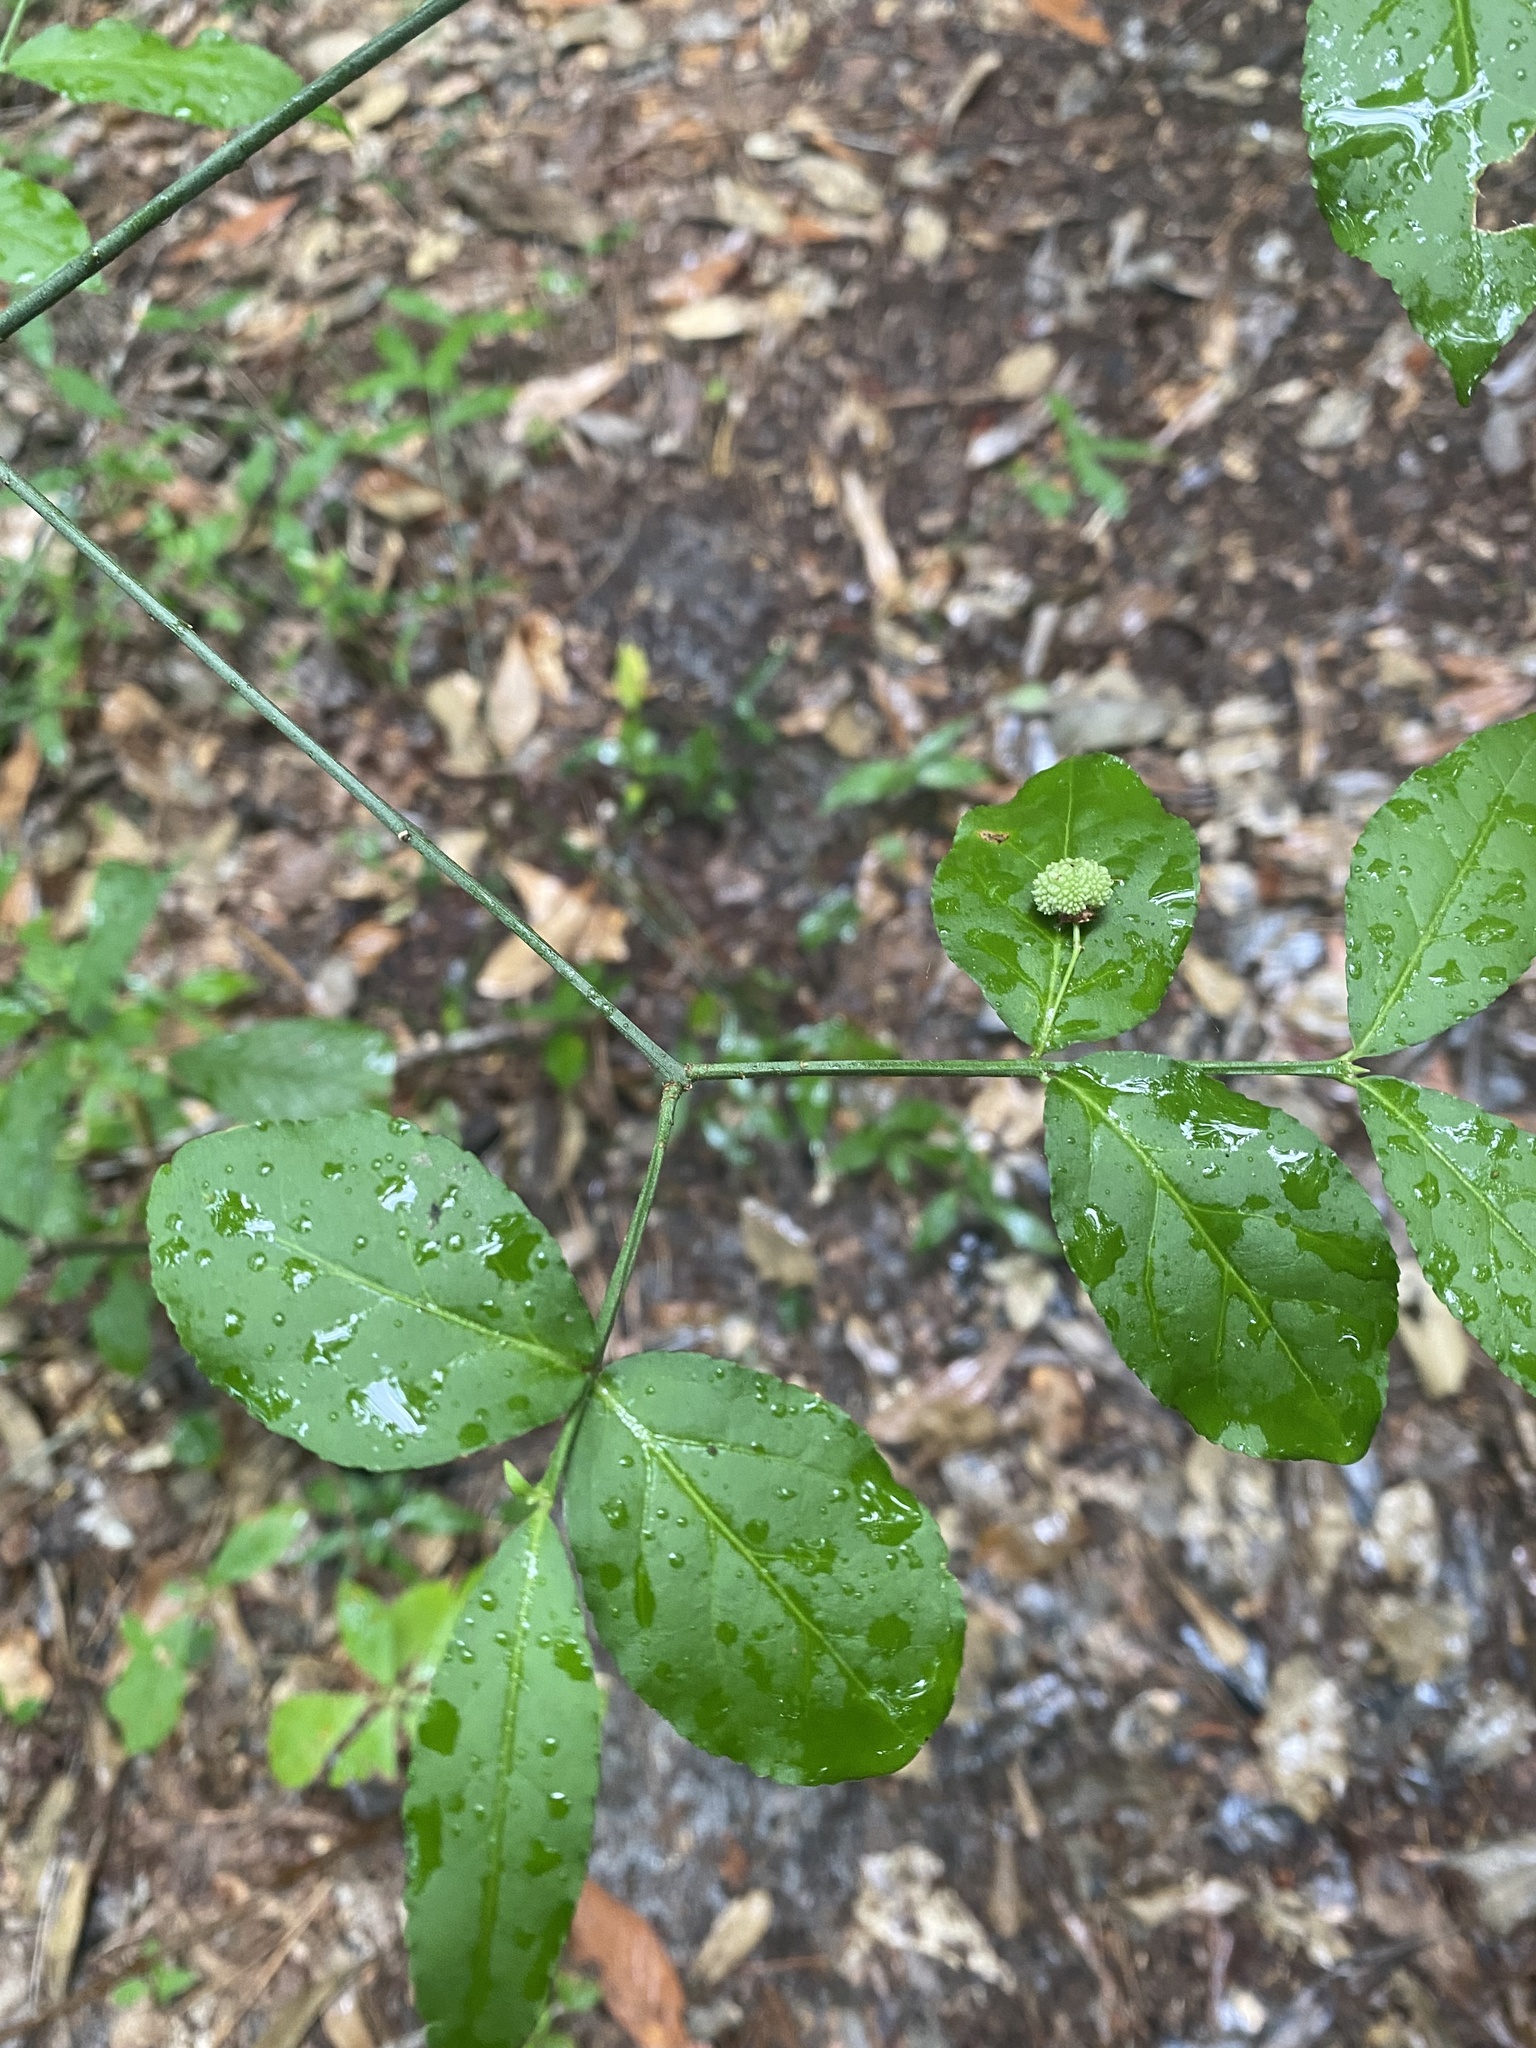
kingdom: Plantae
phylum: Tracheophyta
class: Magnoliopsida
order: Celastrales
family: Celastraceae
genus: Euonymus
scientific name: Euonymus americanus
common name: Bursting-heart
